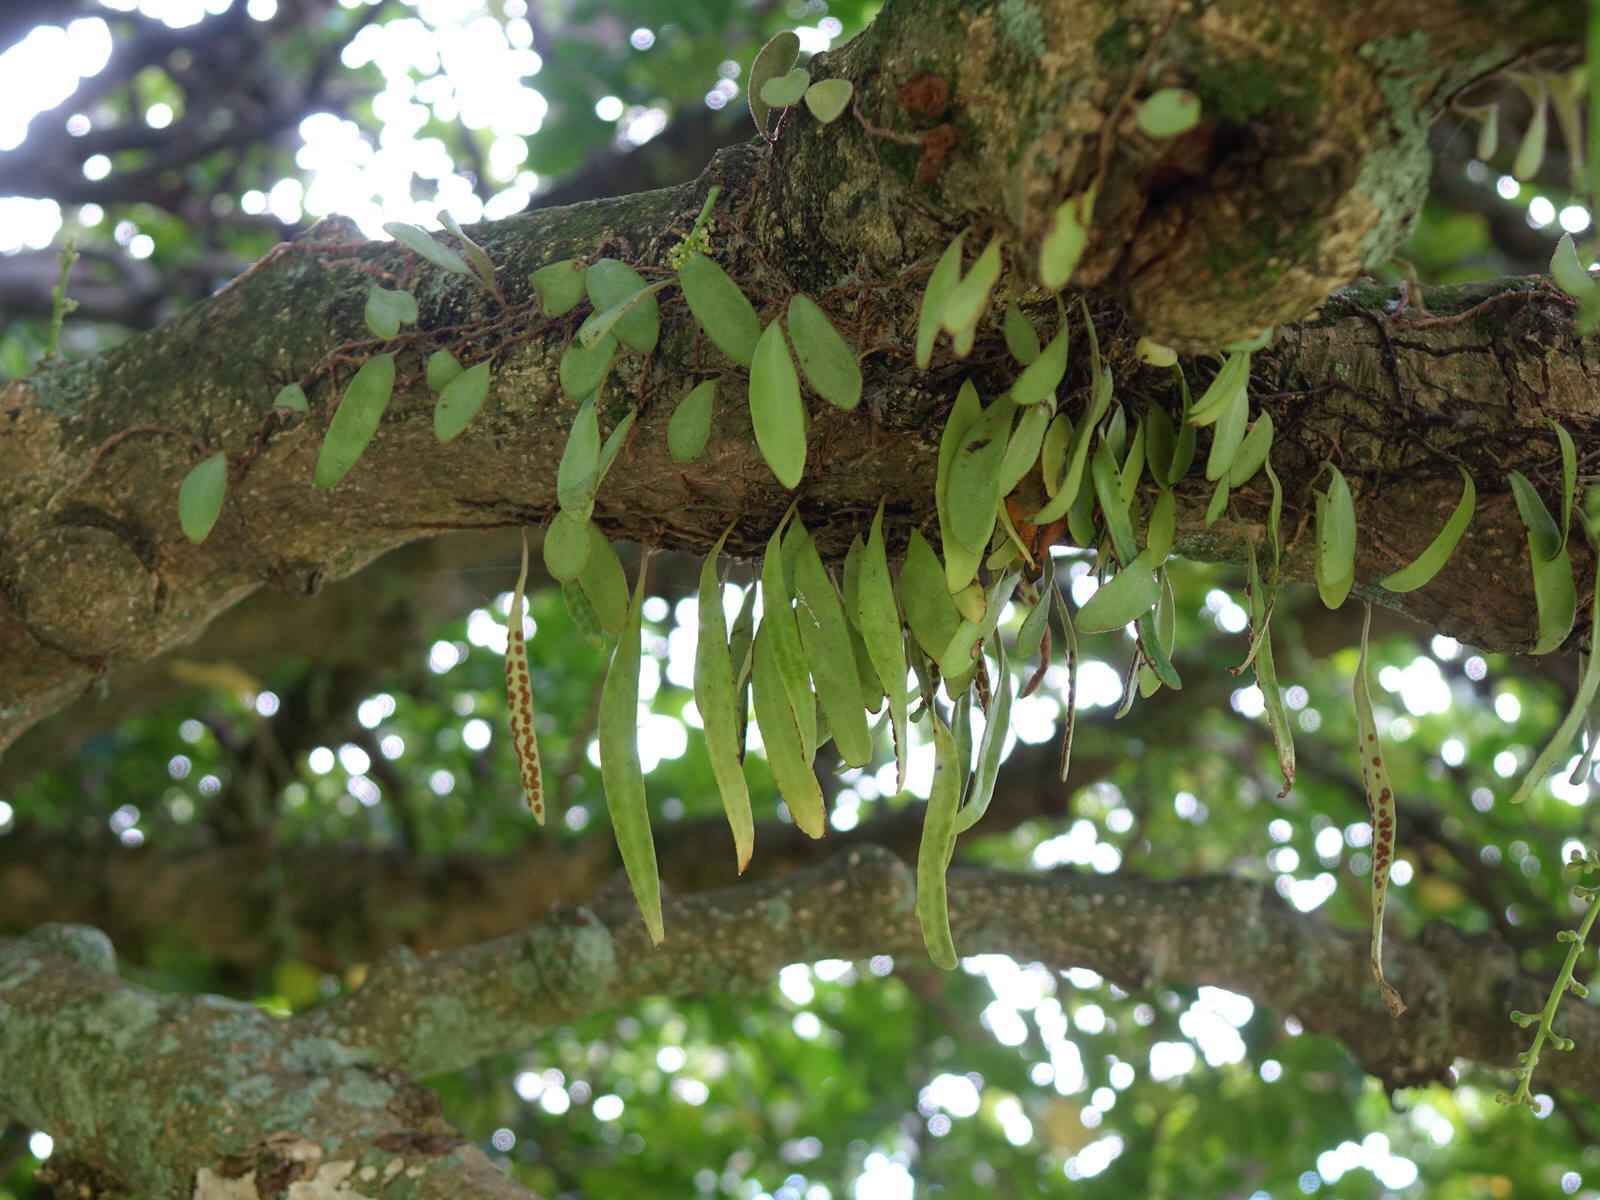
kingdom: Plantae
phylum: Tracheophyta
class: Polypodiopsida
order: Polypodiales
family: Polypodiaceae
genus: Pyrrosia
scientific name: Pyrrosia eleagnifolia
